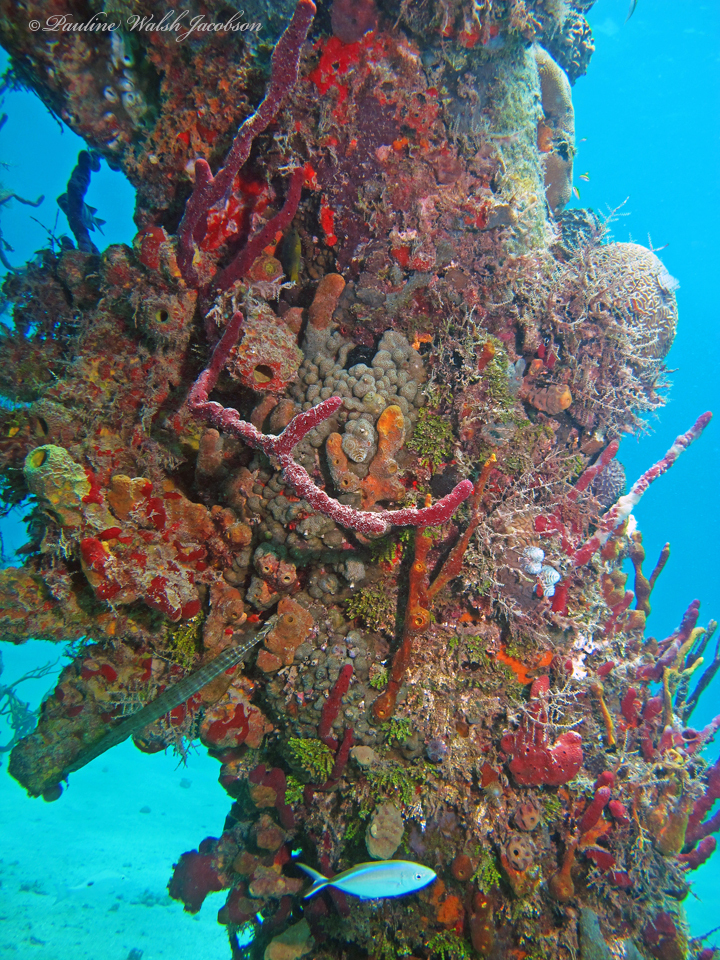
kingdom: Animalia
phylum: Chordata
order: Perciformes
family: Carangidae
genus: Caranx
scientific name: Caranx ruber
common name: Bar jack
